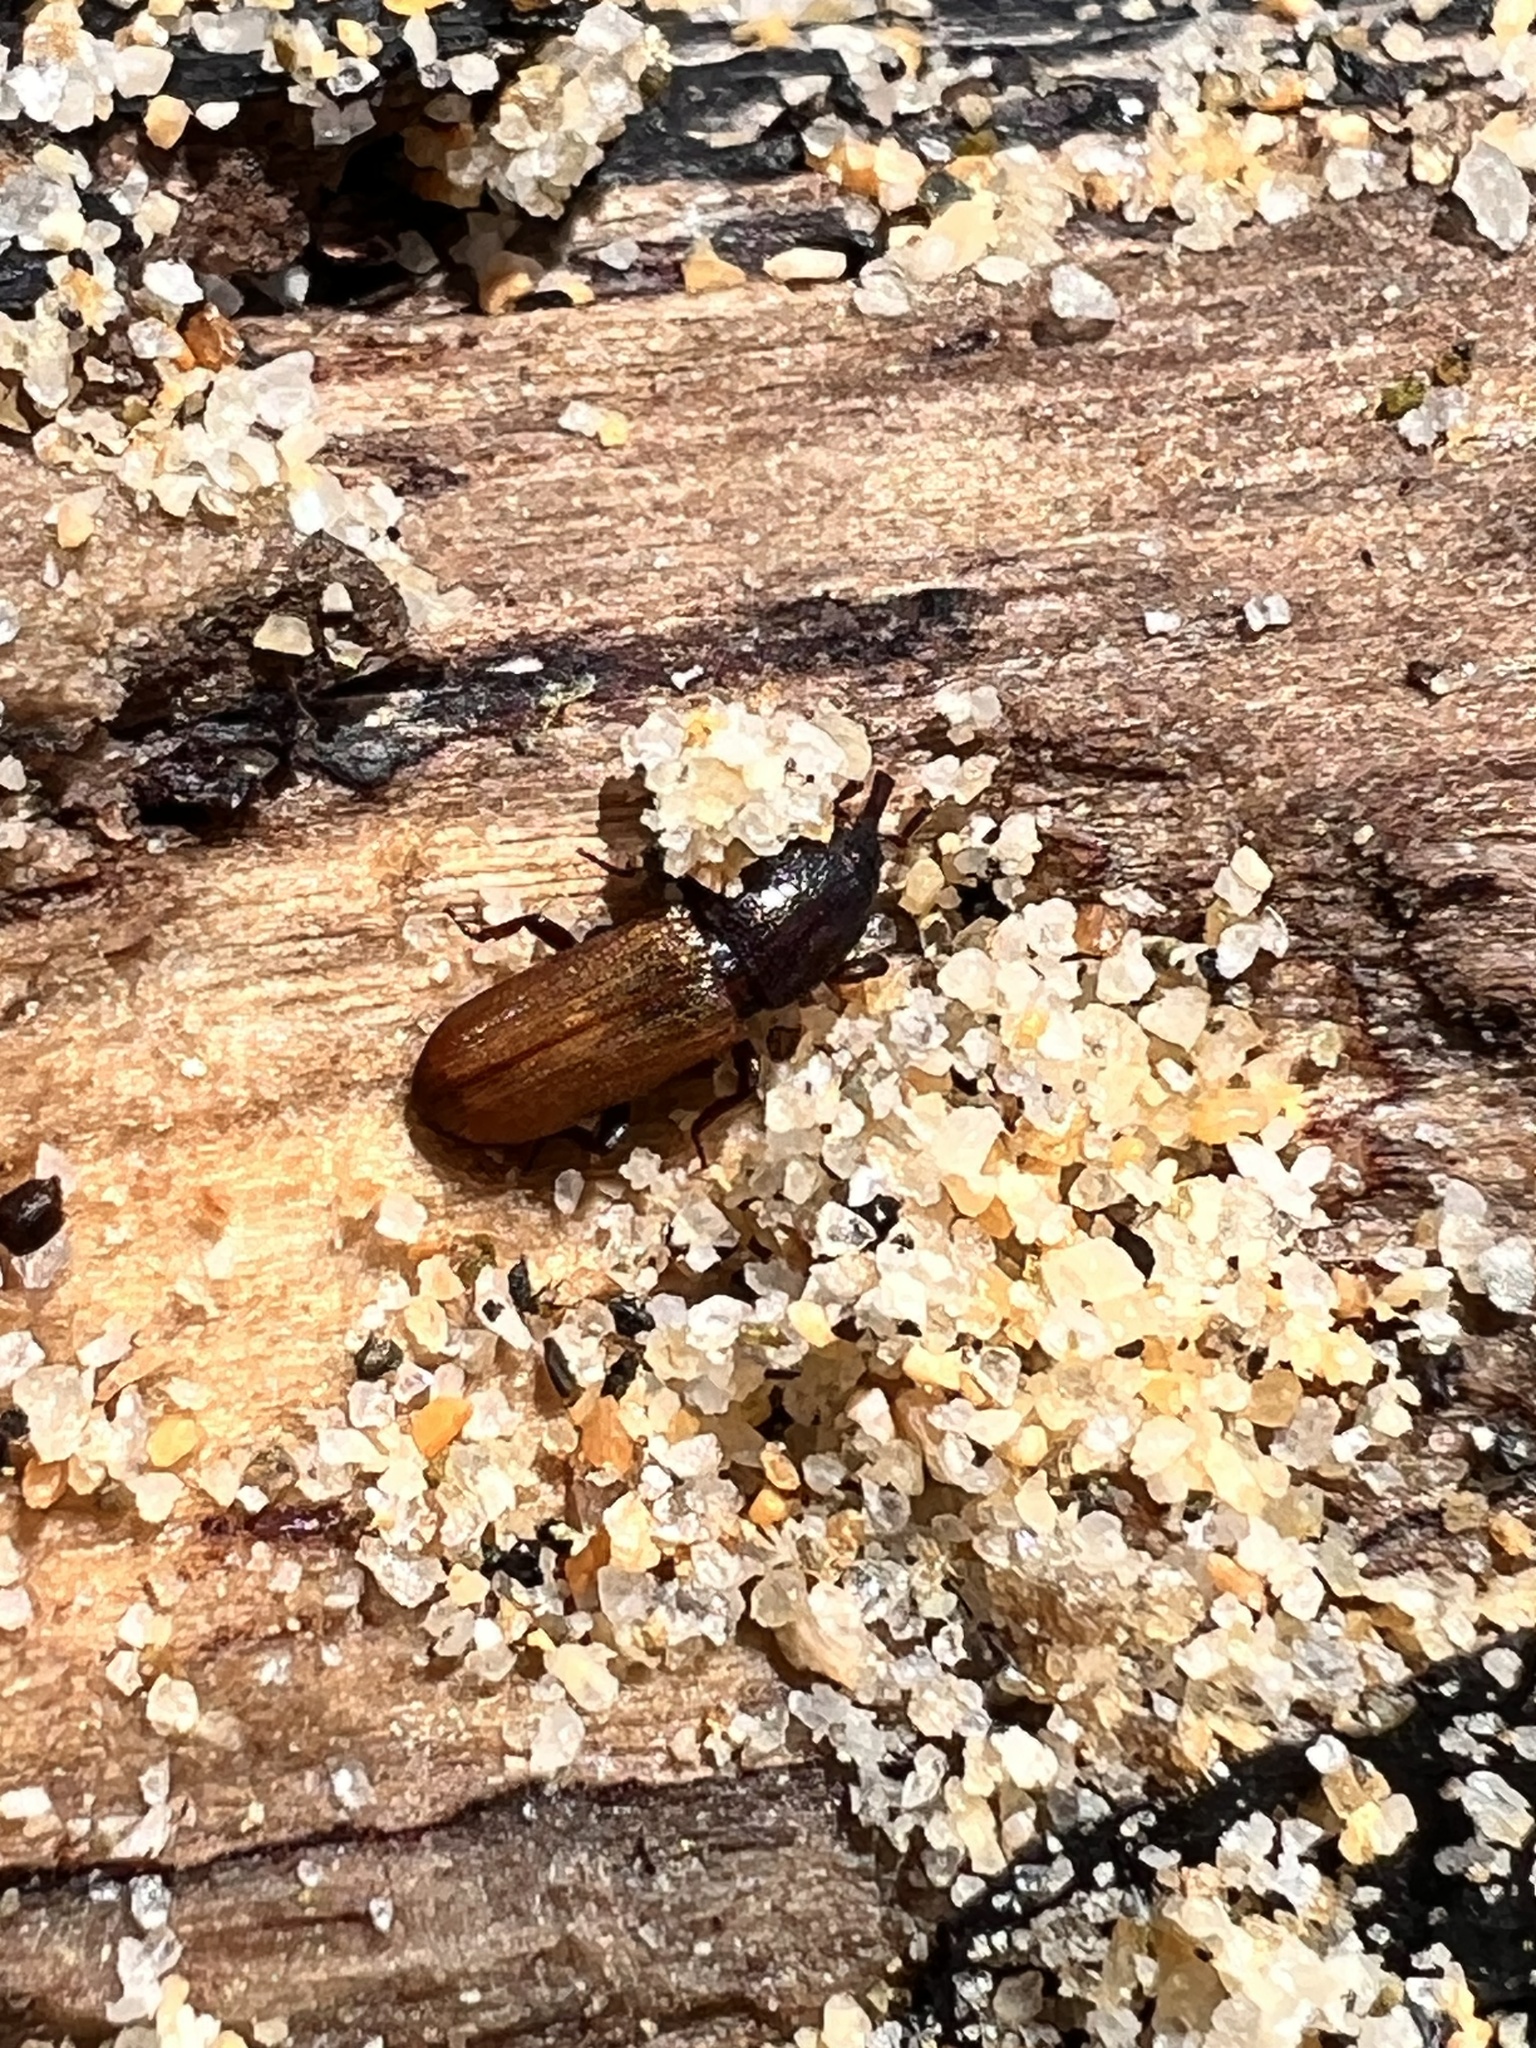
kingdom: Animalia
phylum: Arthropoda
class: Insecta
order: Coleoptera
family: Curculionidae
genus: Mesites
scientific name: Mesites pallidipennis
